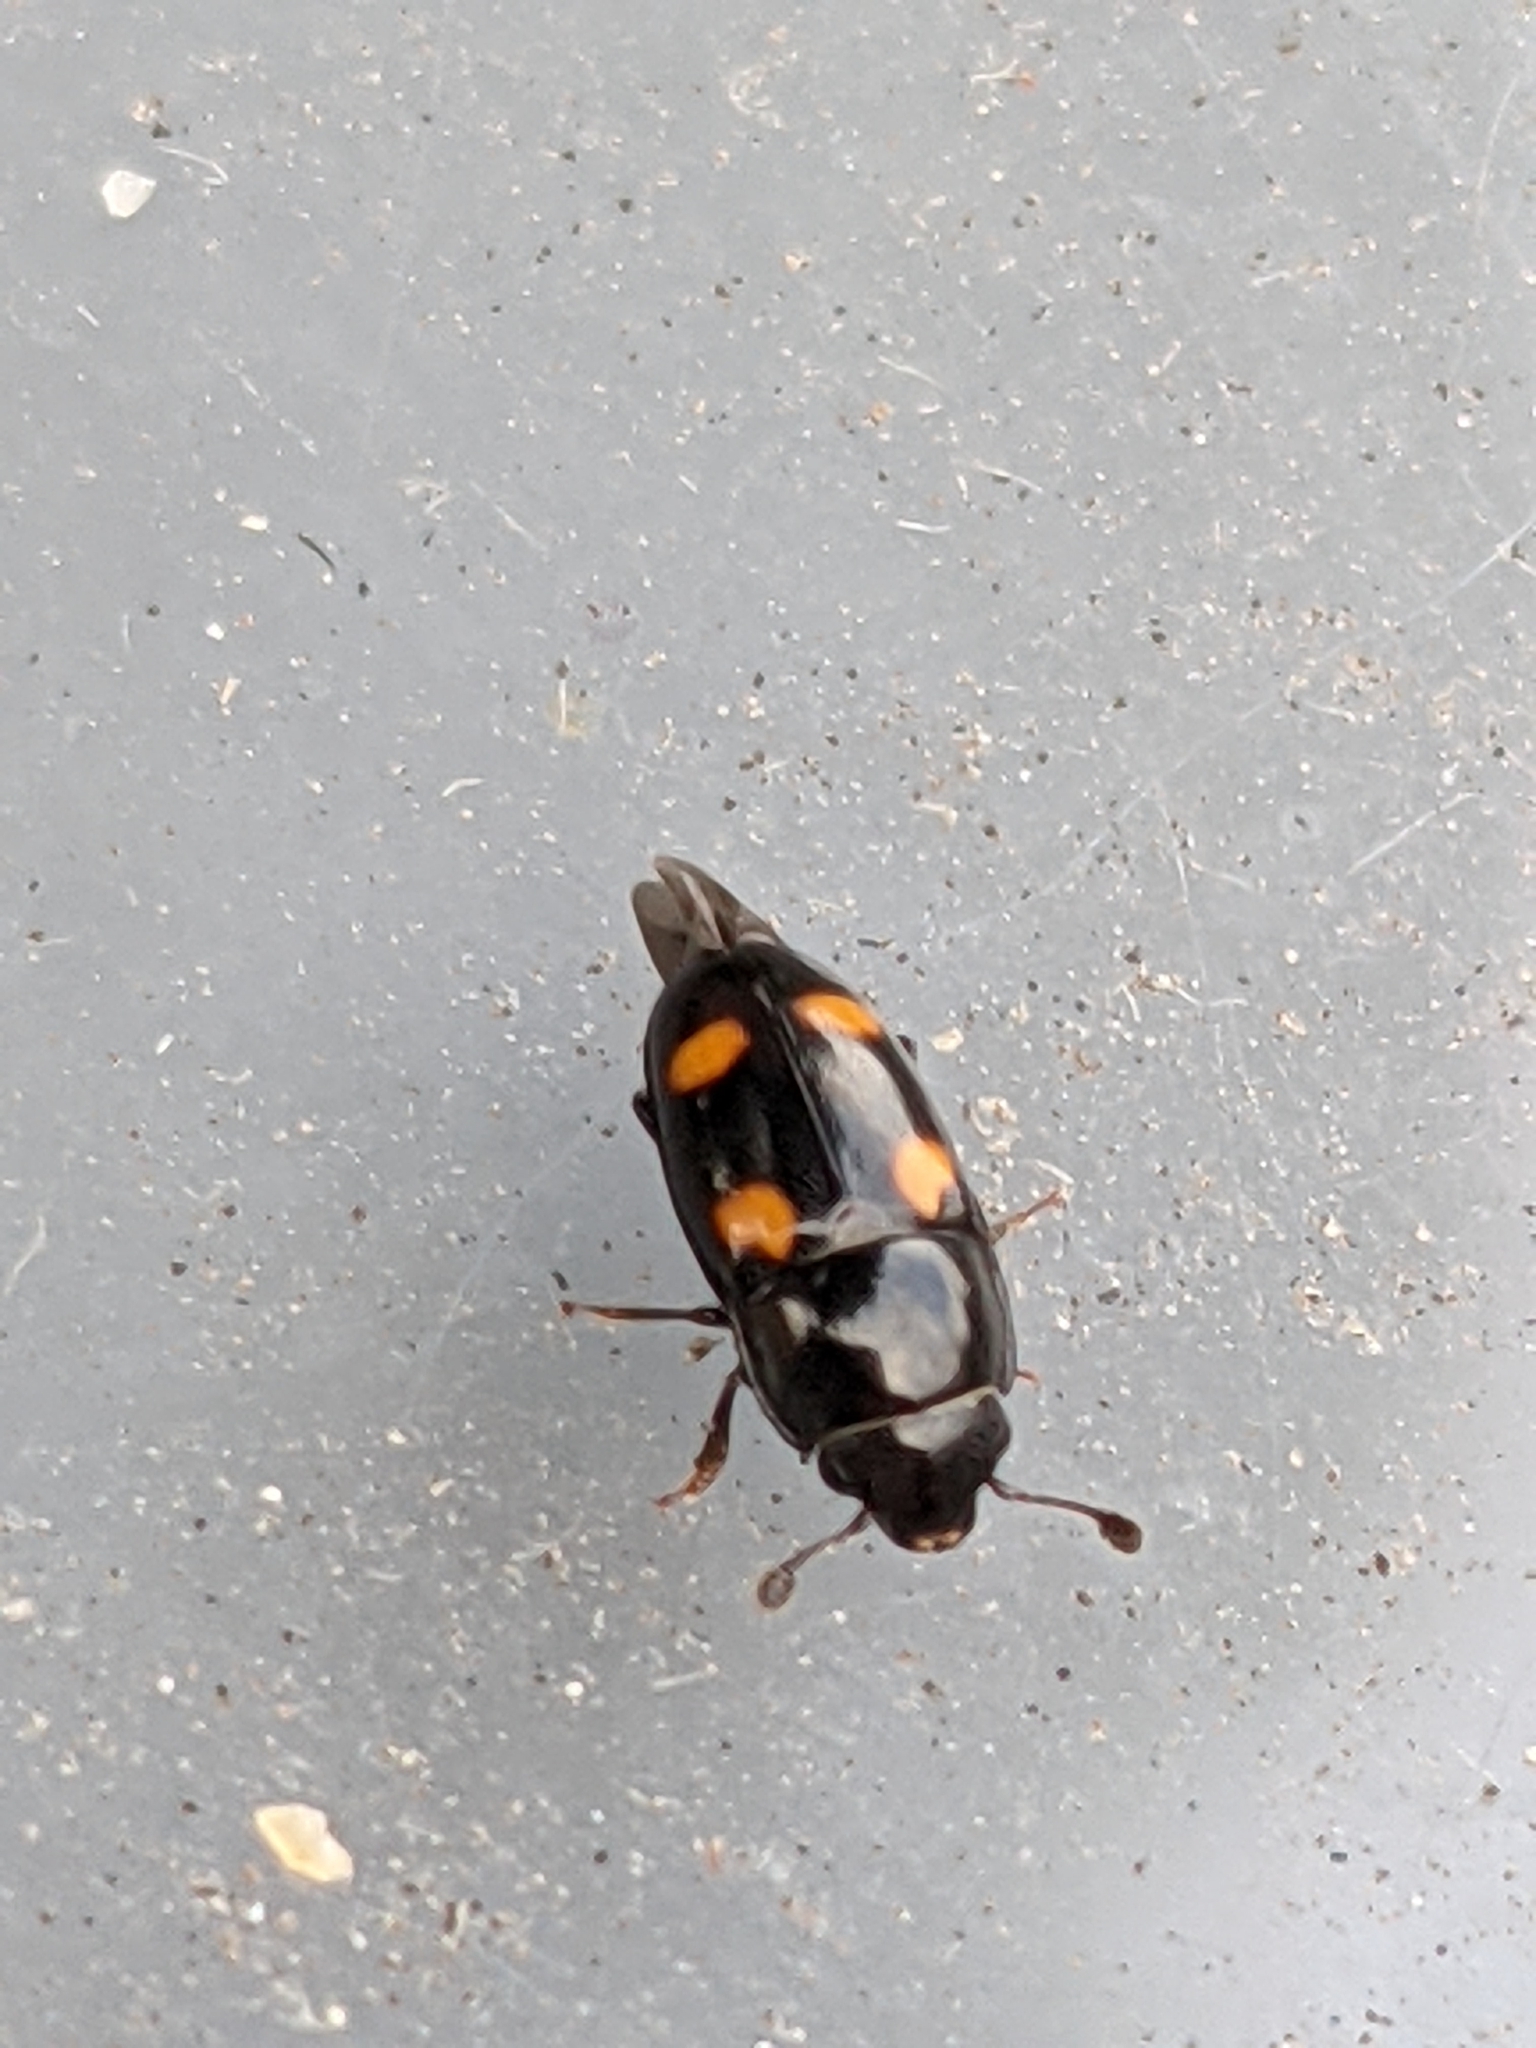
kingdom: Animalia
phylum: Arthropoda
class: Insecta
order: Coleoptera
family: Nitidulidae
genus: Glischrochilus
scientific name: Glischrochilus hortensis
